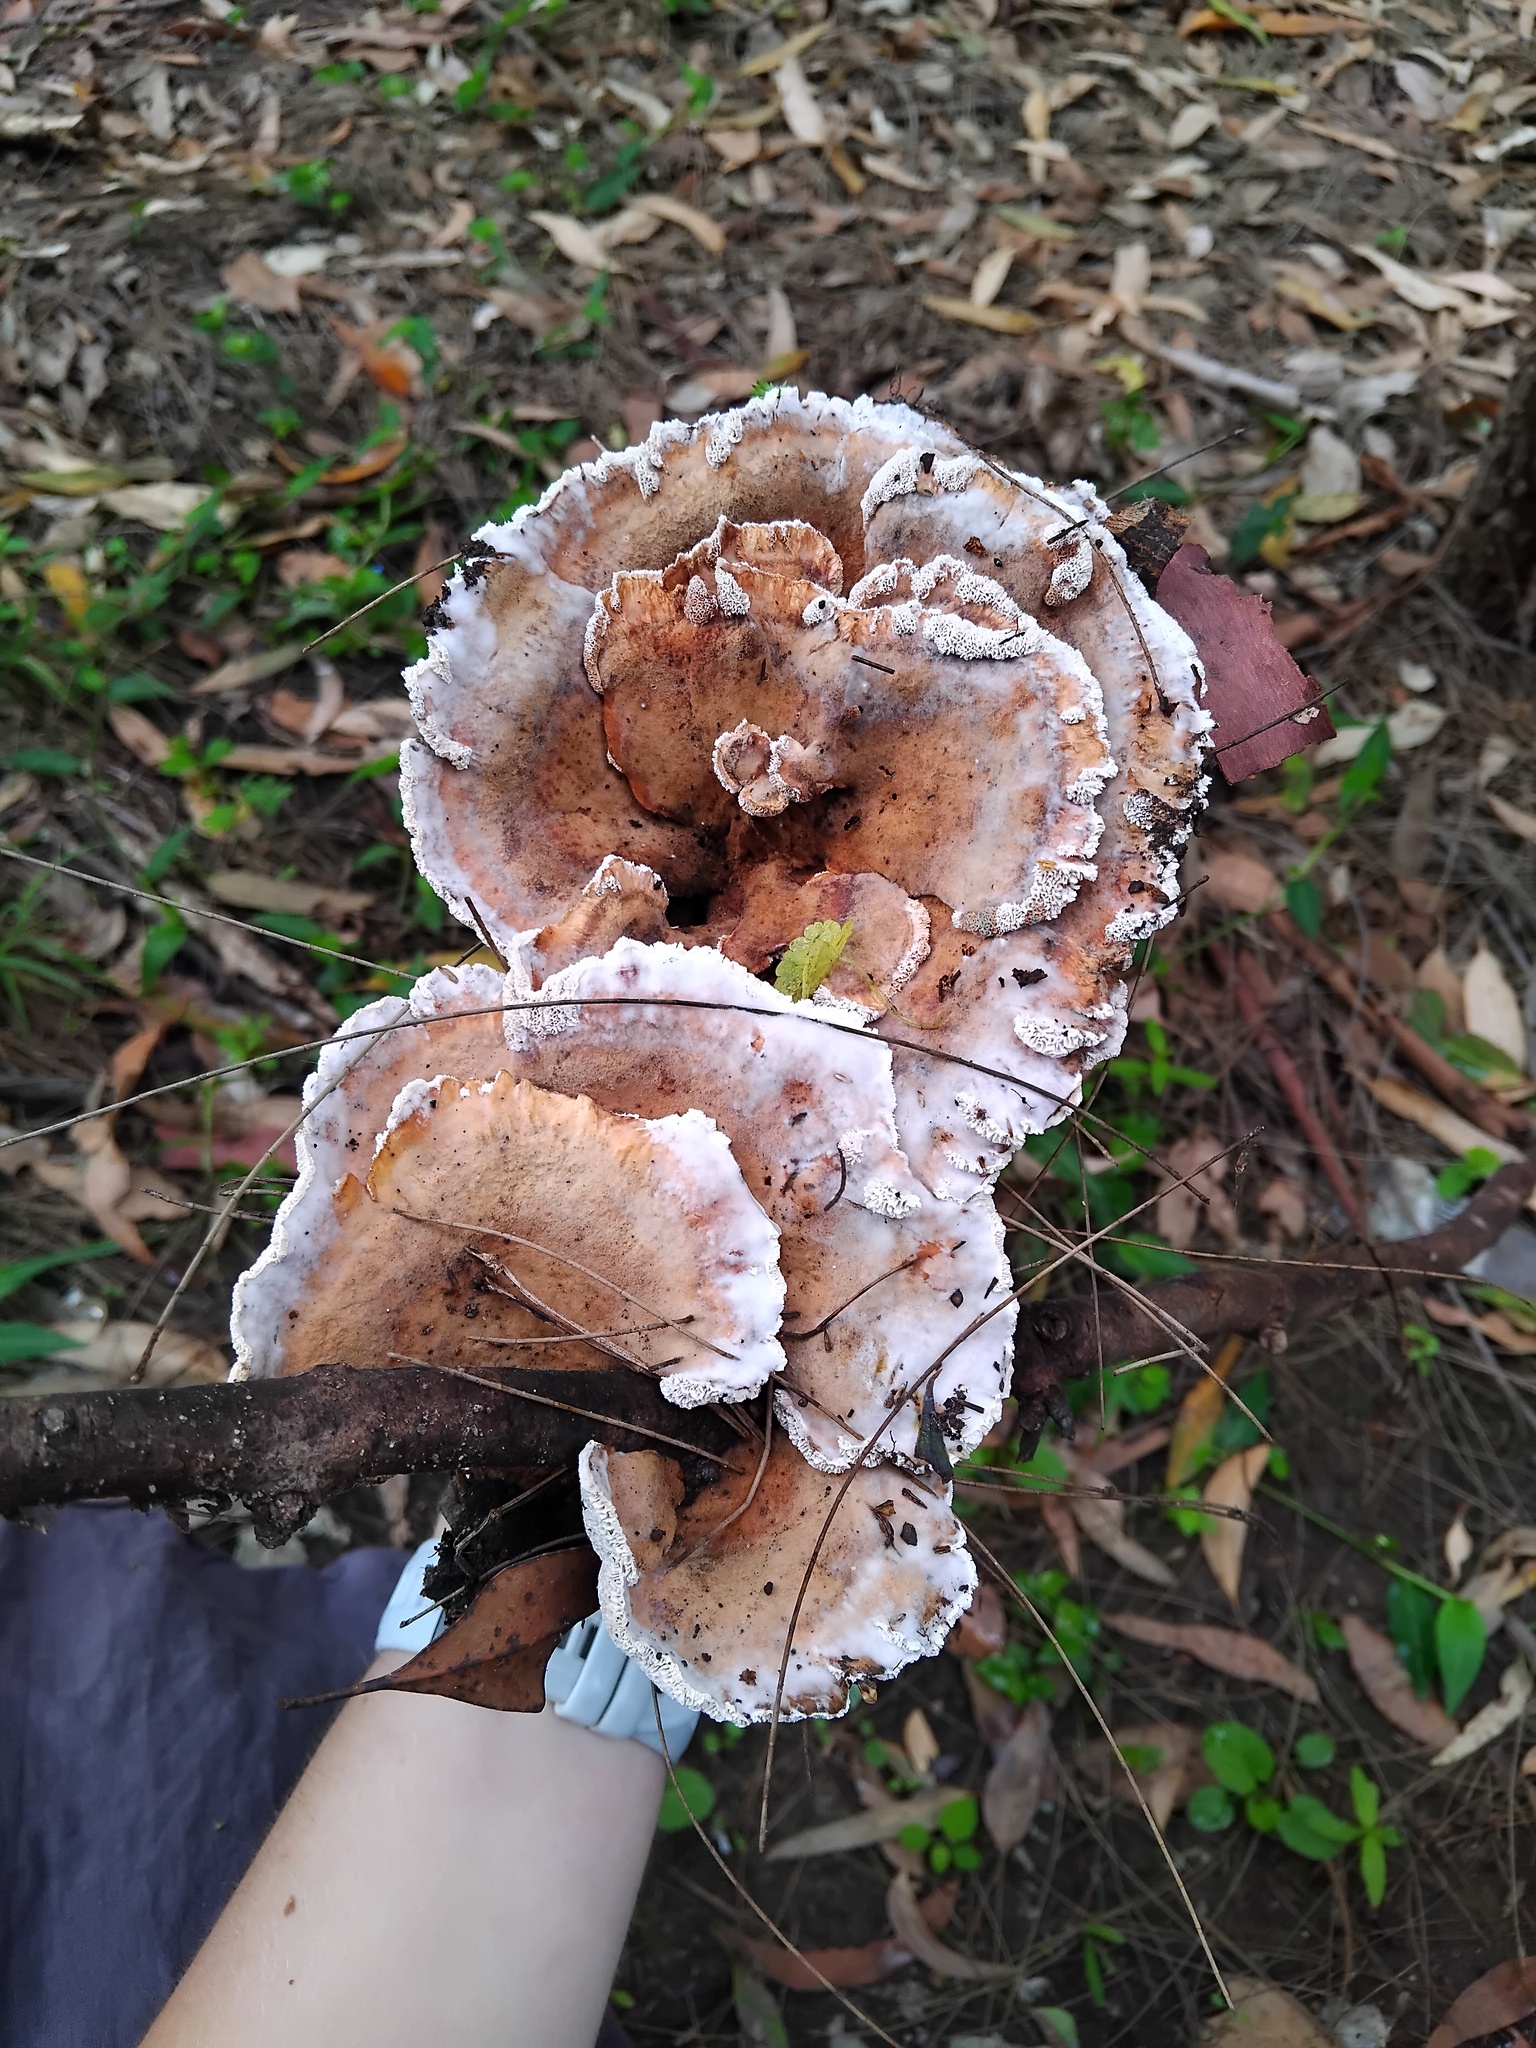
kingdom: Fungi
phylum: Basidiomycota
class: Agaricomycetes
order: Polyporales
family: Podoscyphaceae
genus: Abortiporus
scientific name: Abortiporus biennis
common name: Blushing rosette
